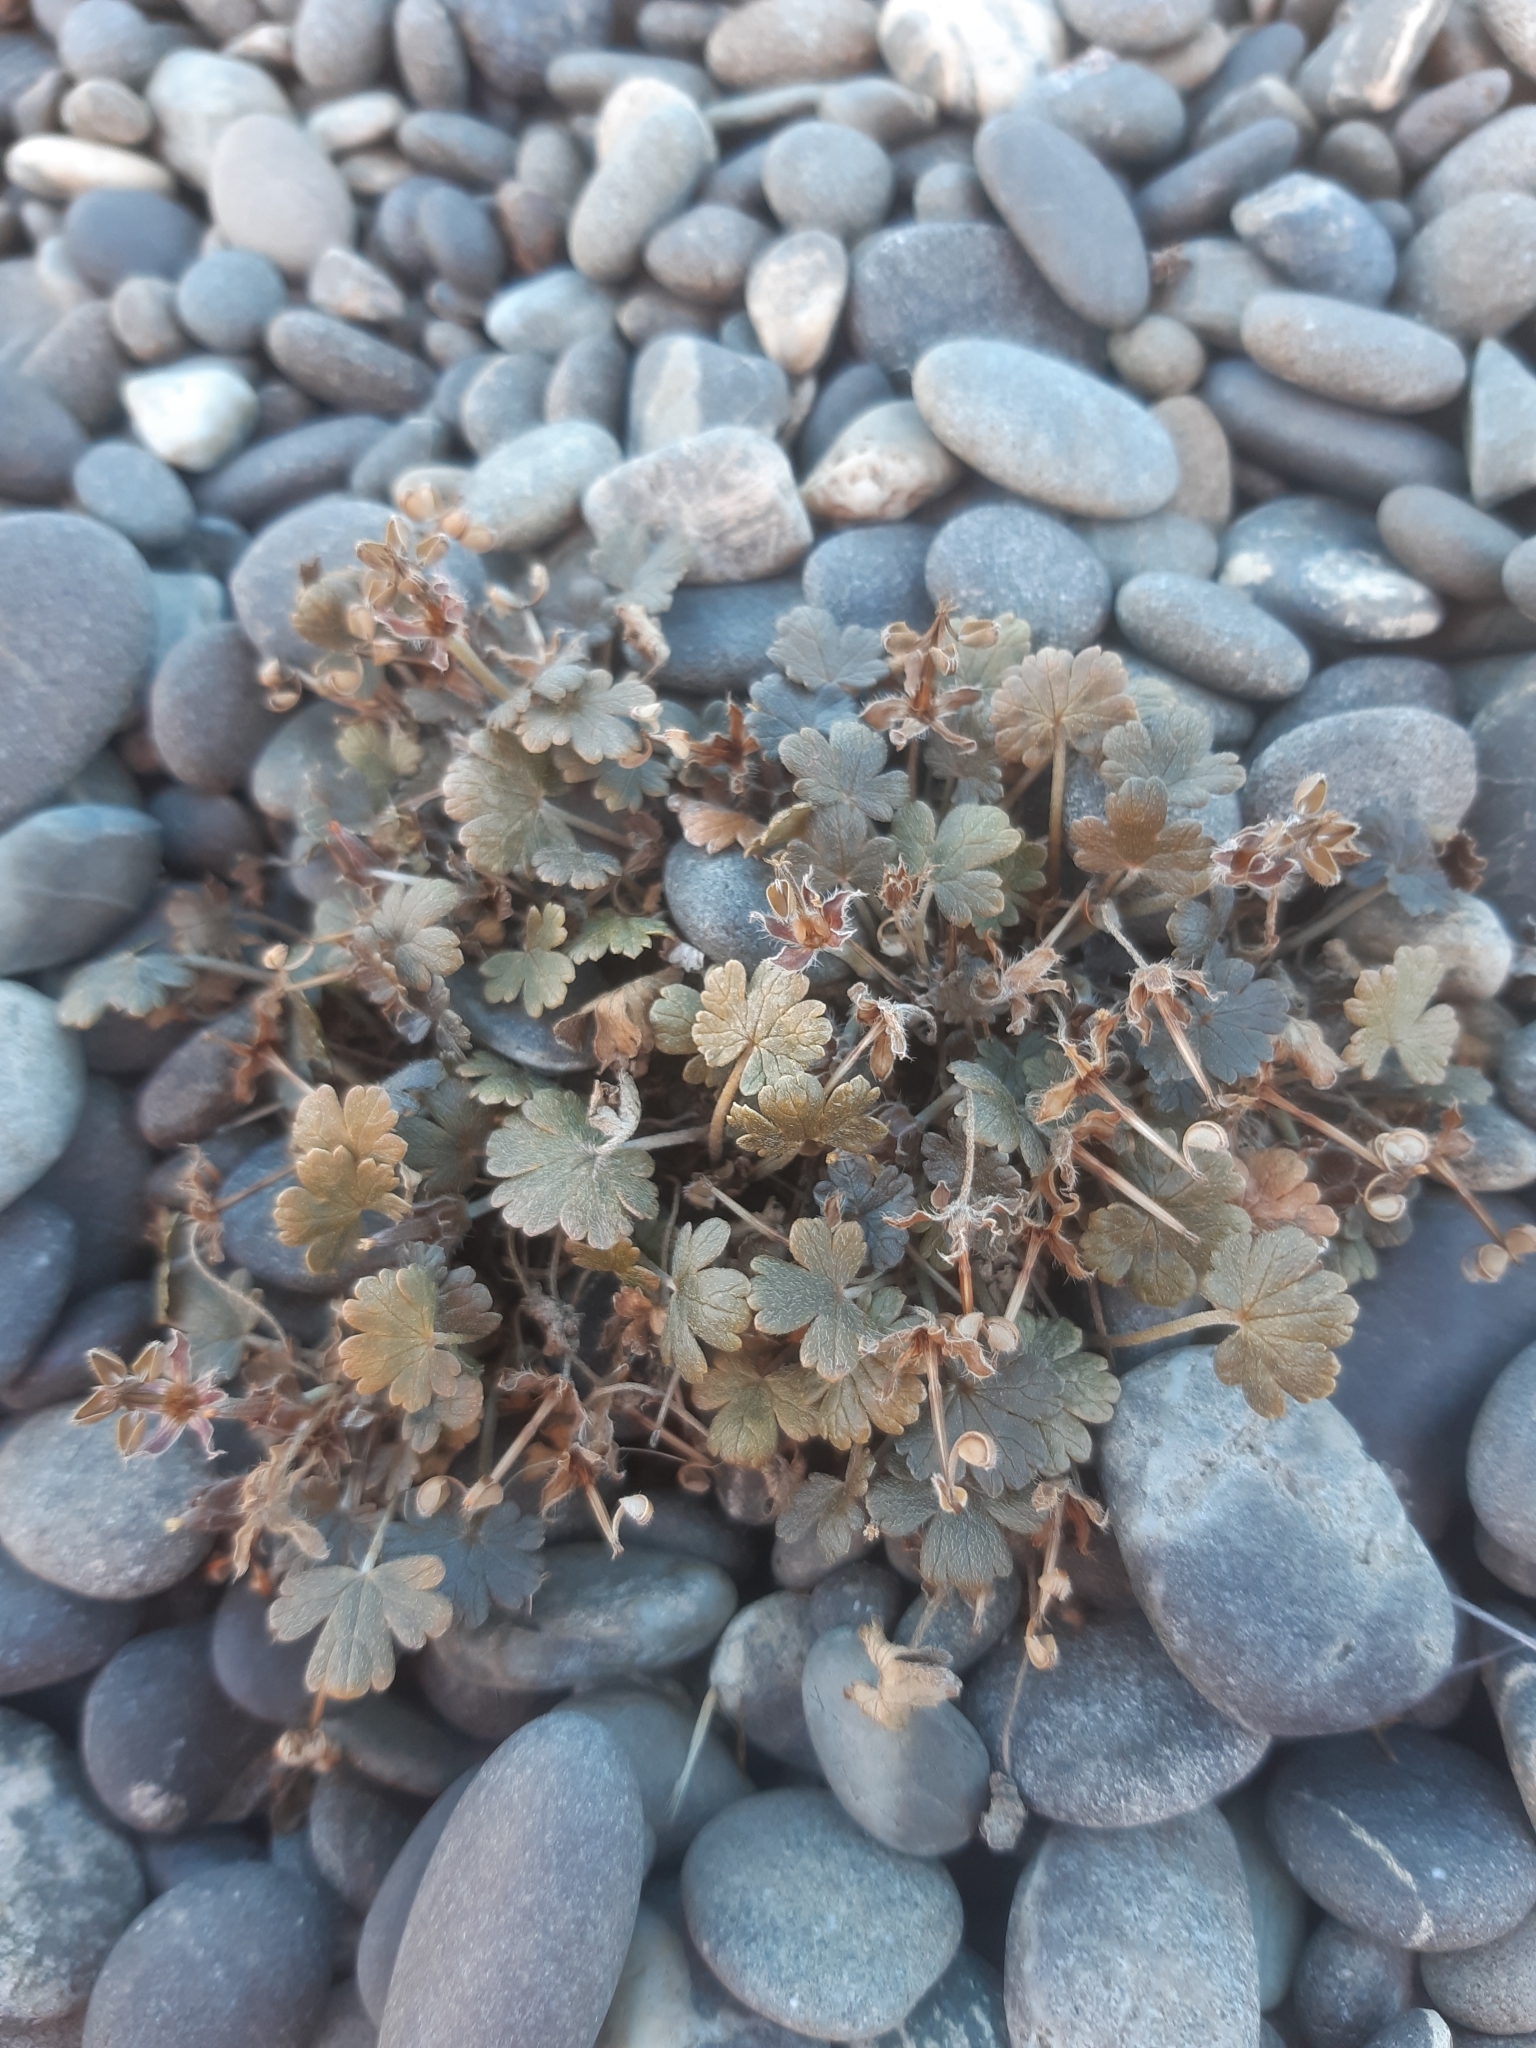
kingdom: Plantae
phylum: Tracheophyta
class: Magnoliopsida
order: Geraniales
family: Geraniaceae
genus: Geranium
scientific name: Geranium brevicaule
